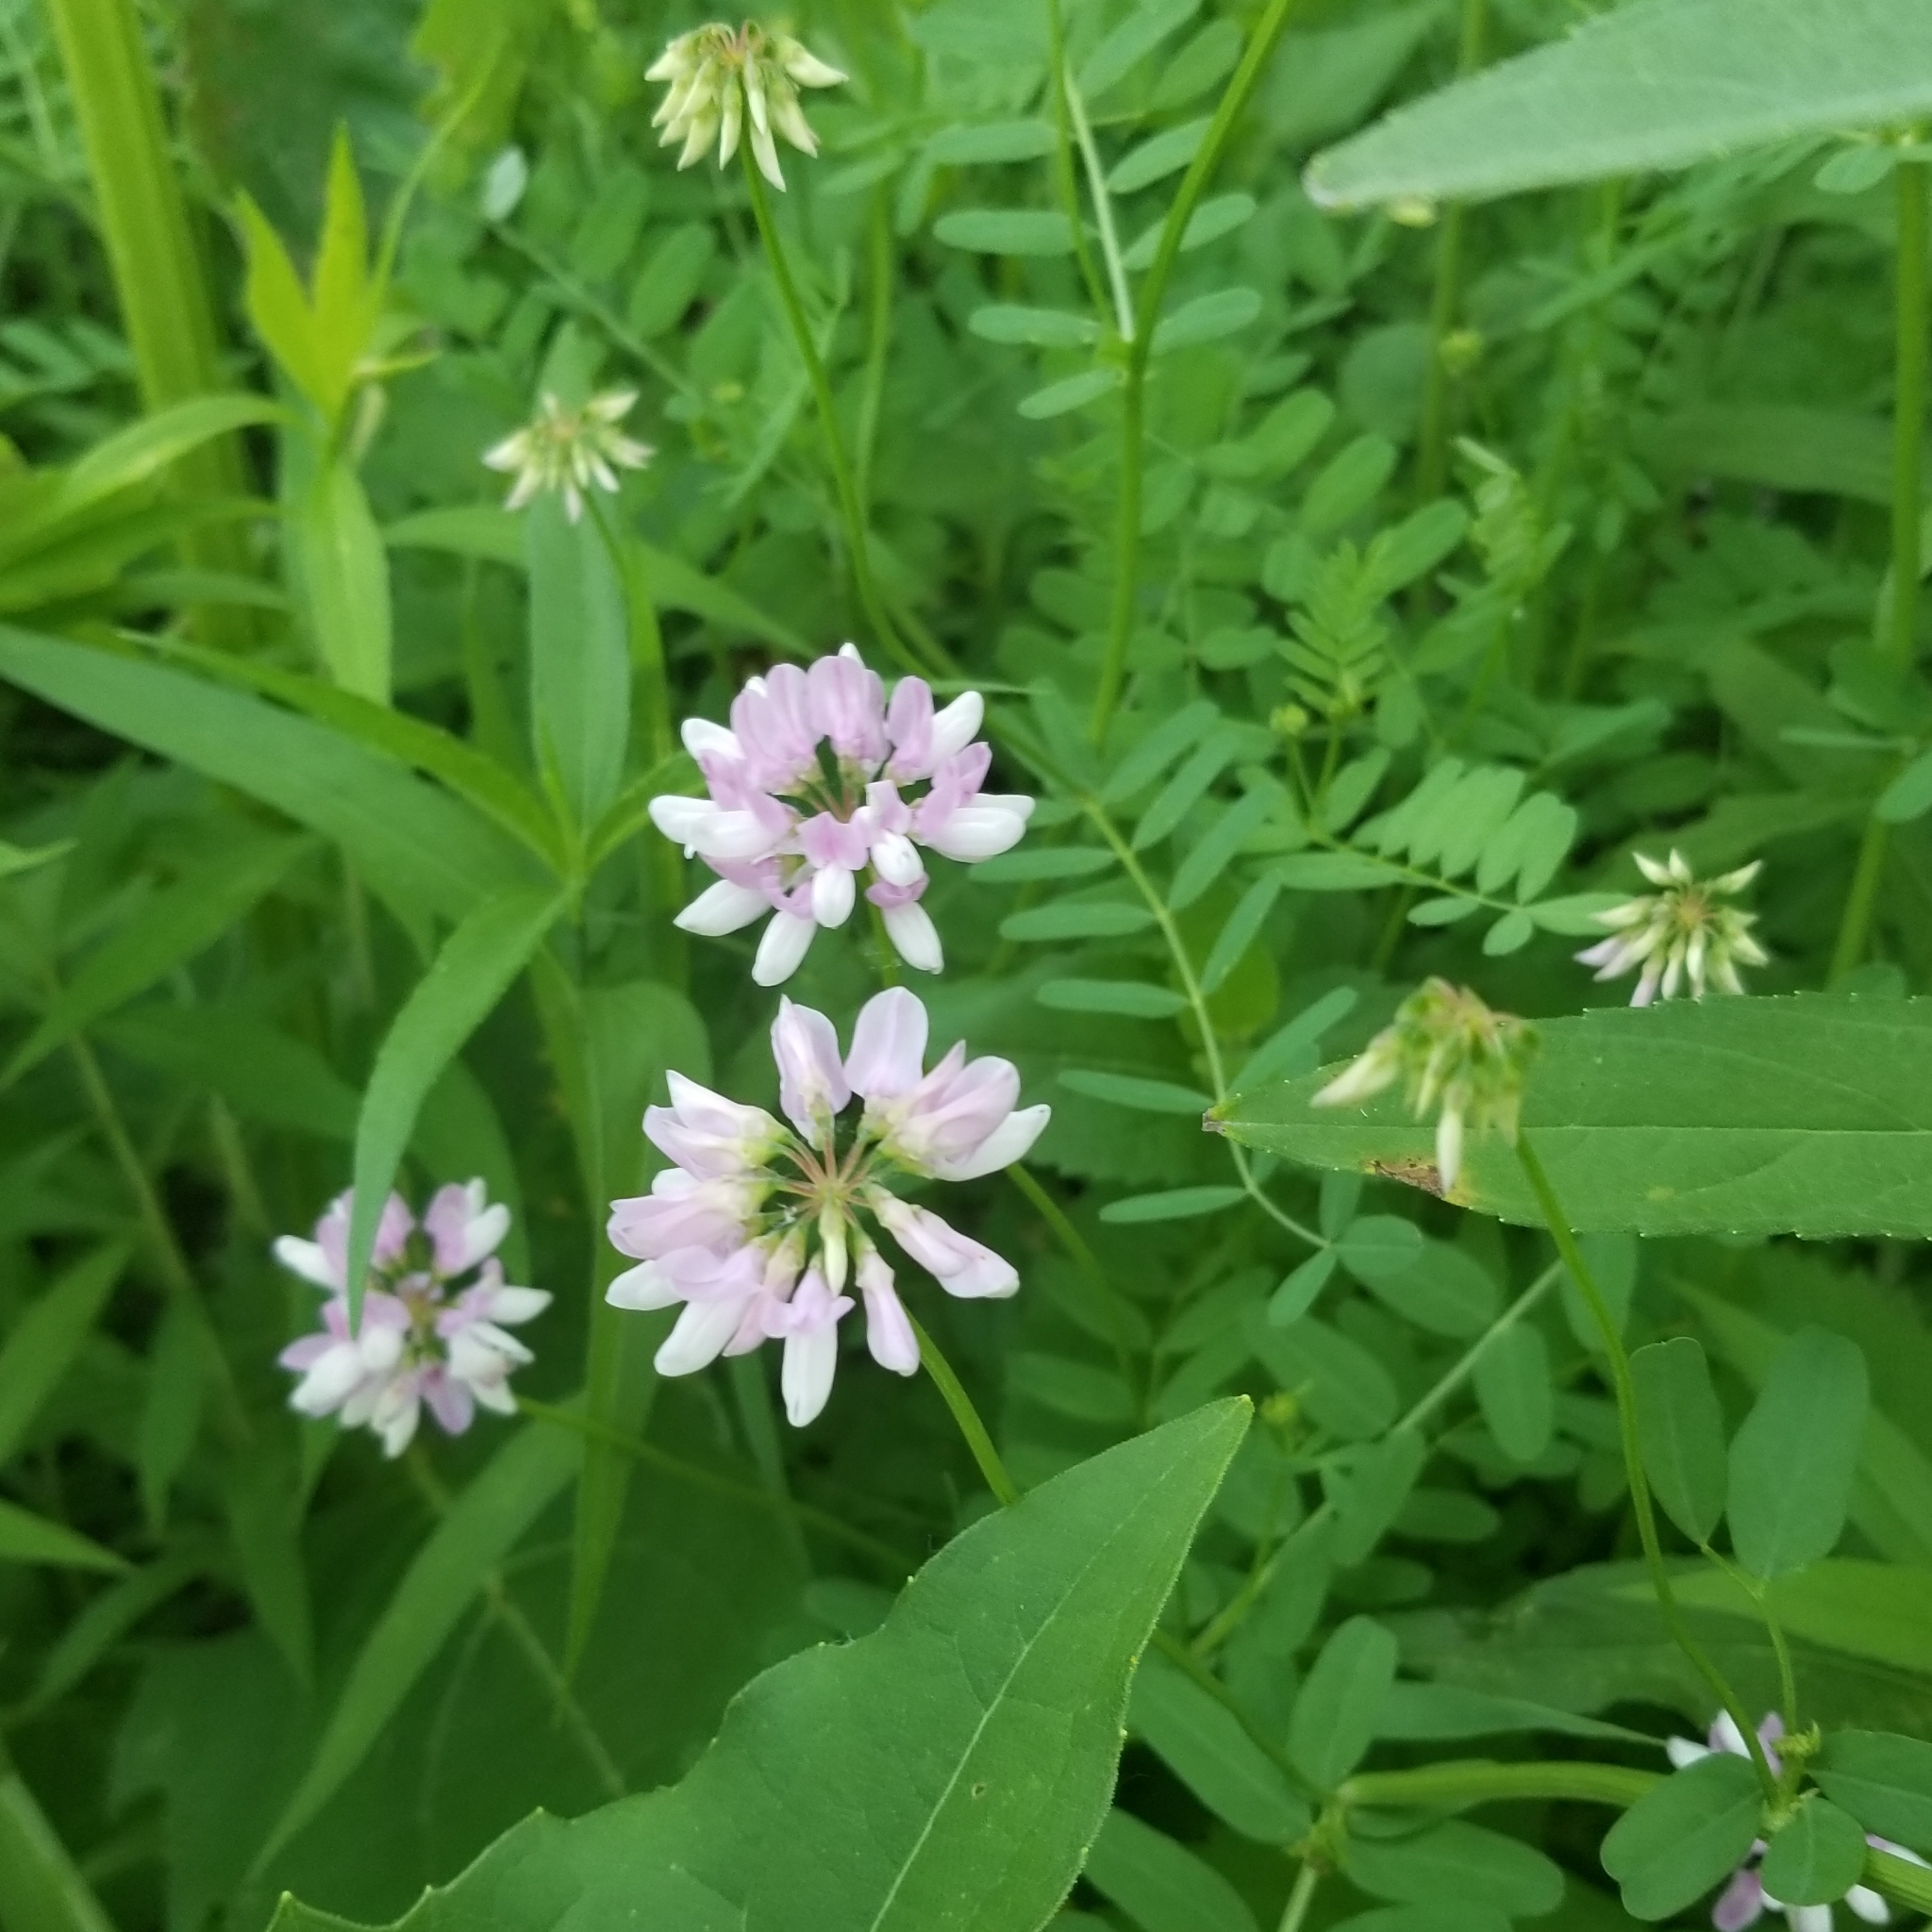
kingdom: Plantae
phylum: Tracheophyta
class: Magnoliopsida
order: Fabales
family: Fabaceae
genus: Coronilla
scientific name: Coronilla varia
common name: Crownvetch
